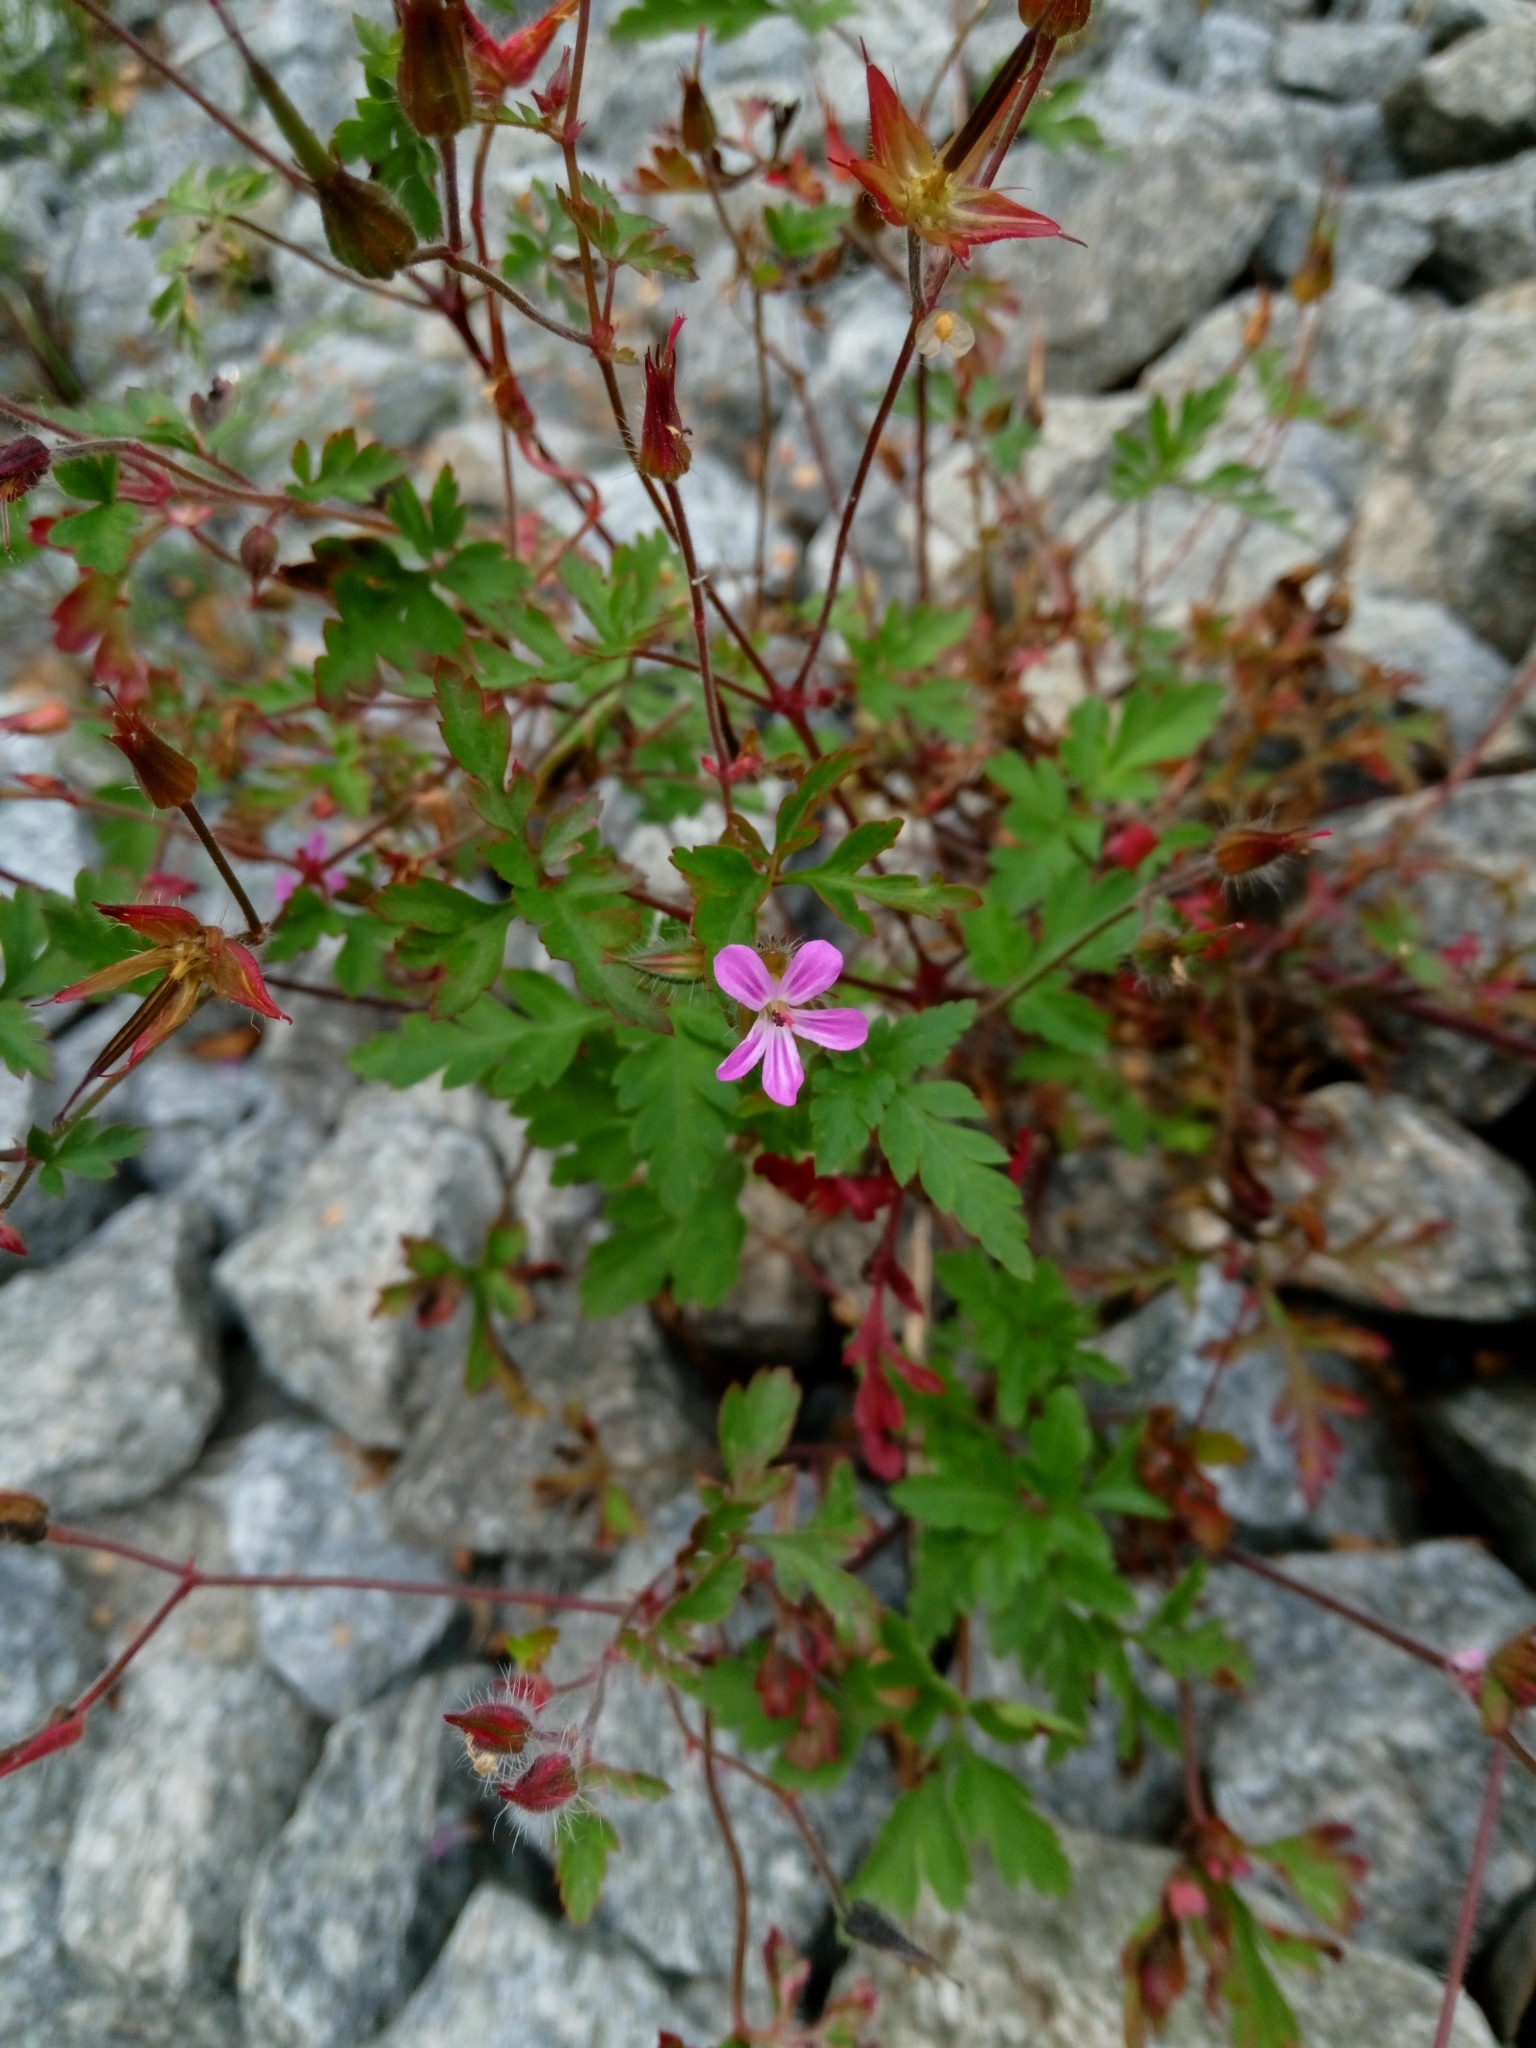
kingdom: Plantae
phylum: Tracheophyta
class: Magnoliopsida
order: Geraniales
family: Geraniaceae
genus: Geranium
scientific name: Geranium robertianum
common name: Herb-robert
